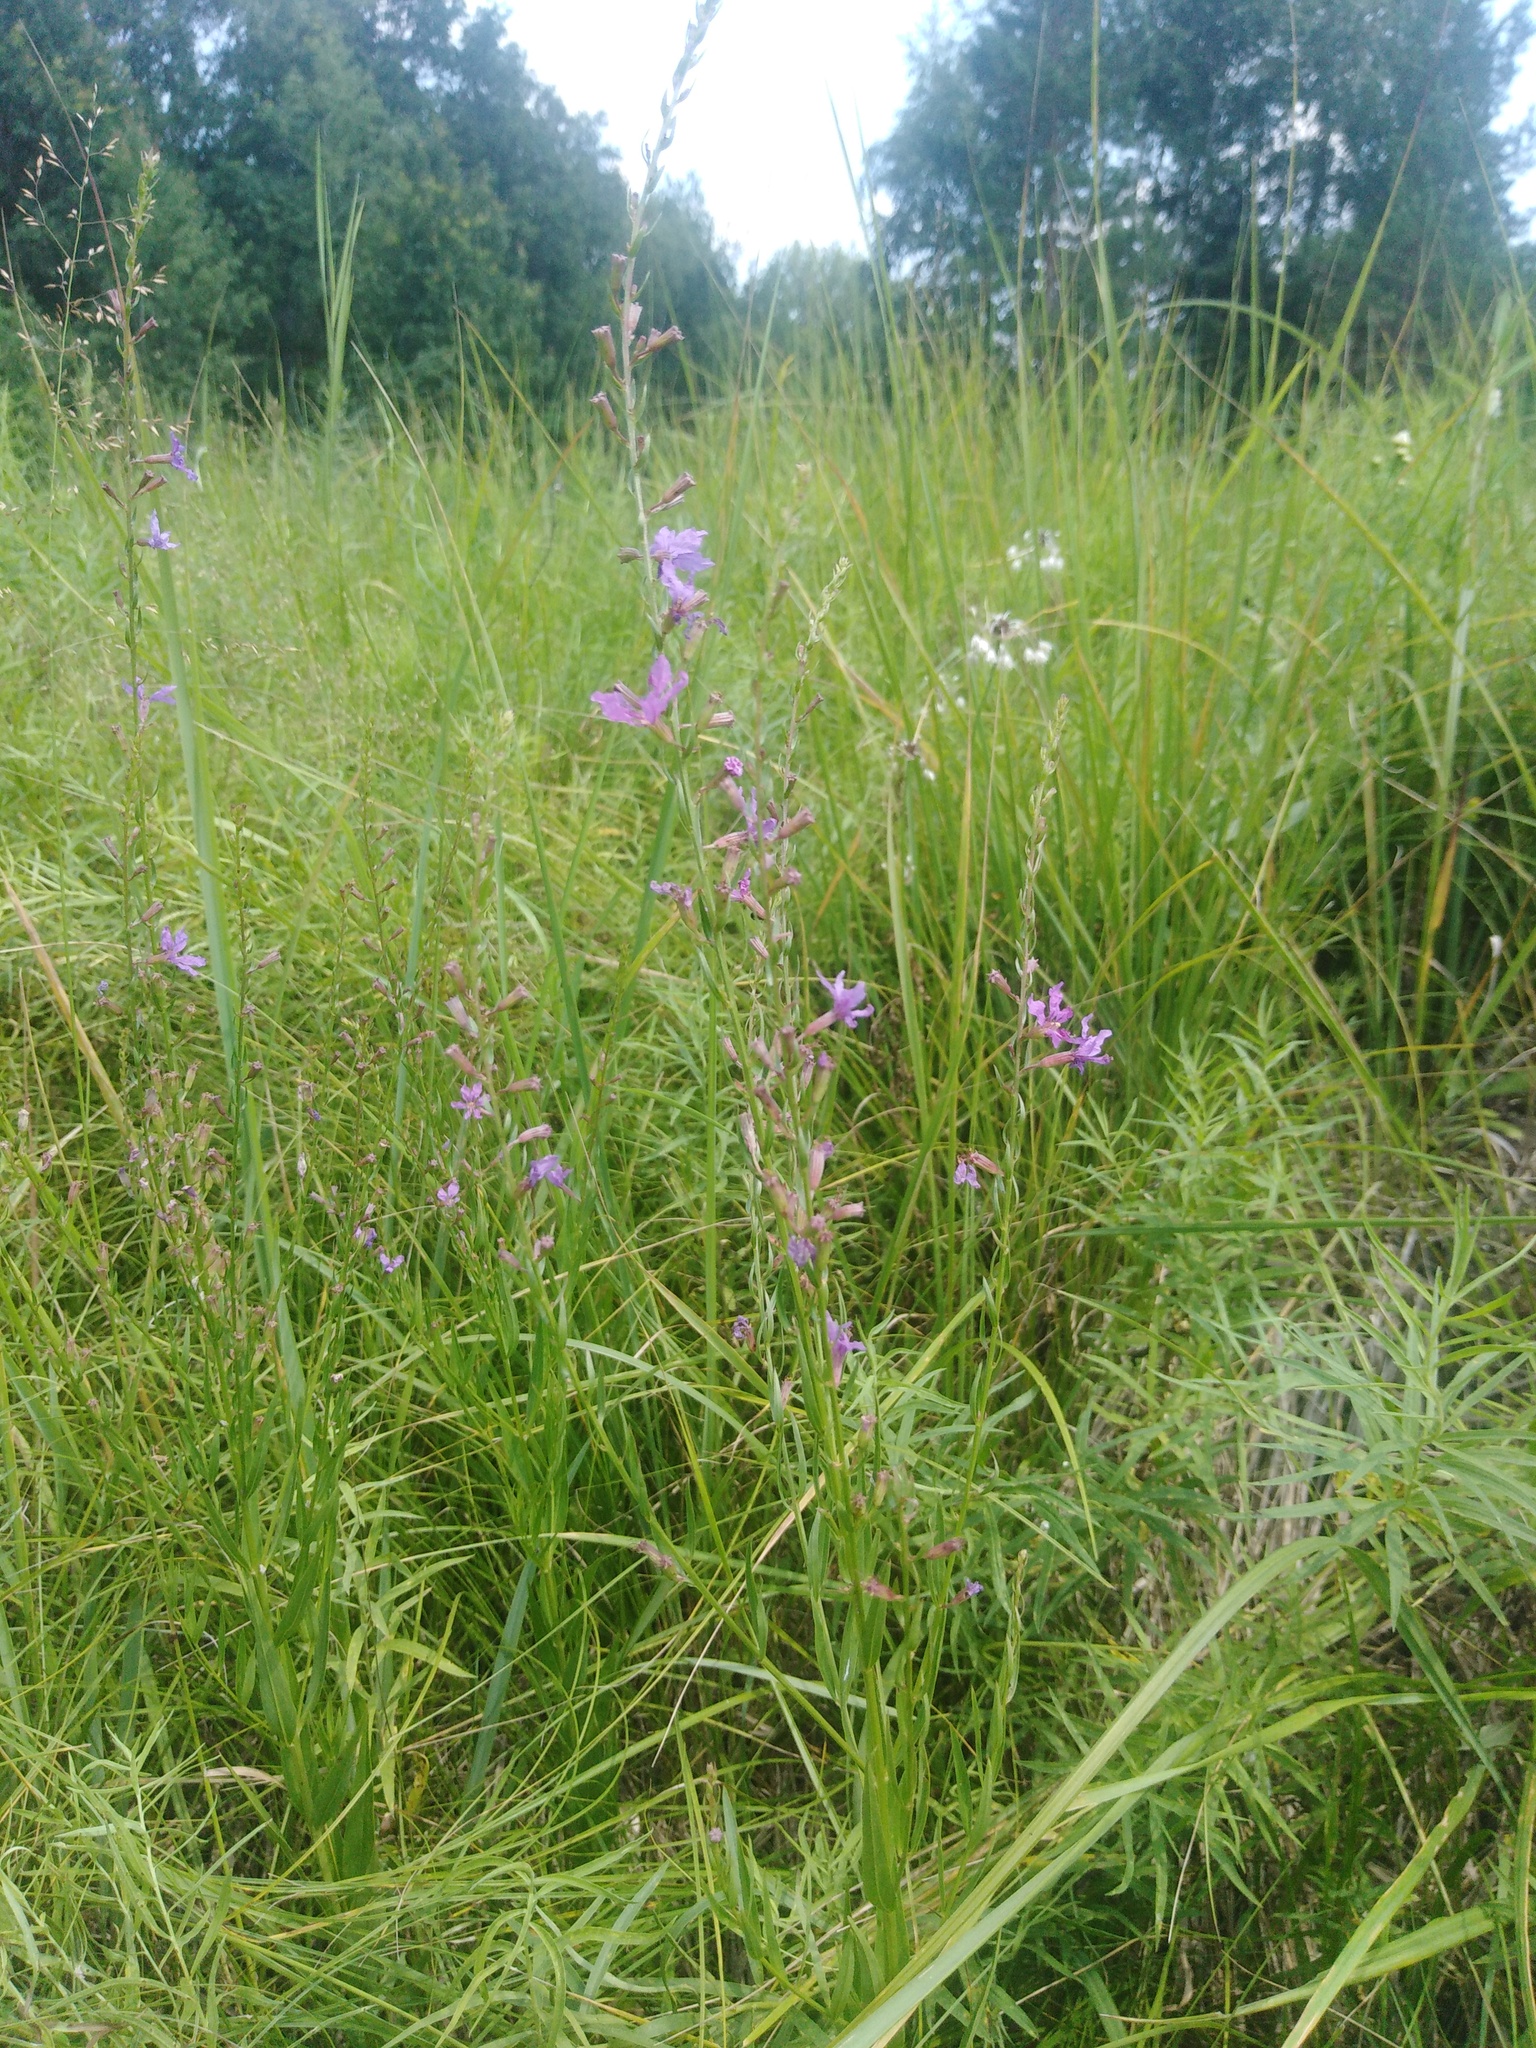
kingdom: Plantae
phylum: Tracheophyta
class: Magnoliopsida
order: Myrtales
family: Lythraceae
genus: Lythrum
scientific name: Lythrum virgatum
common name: European wand loosestrife
